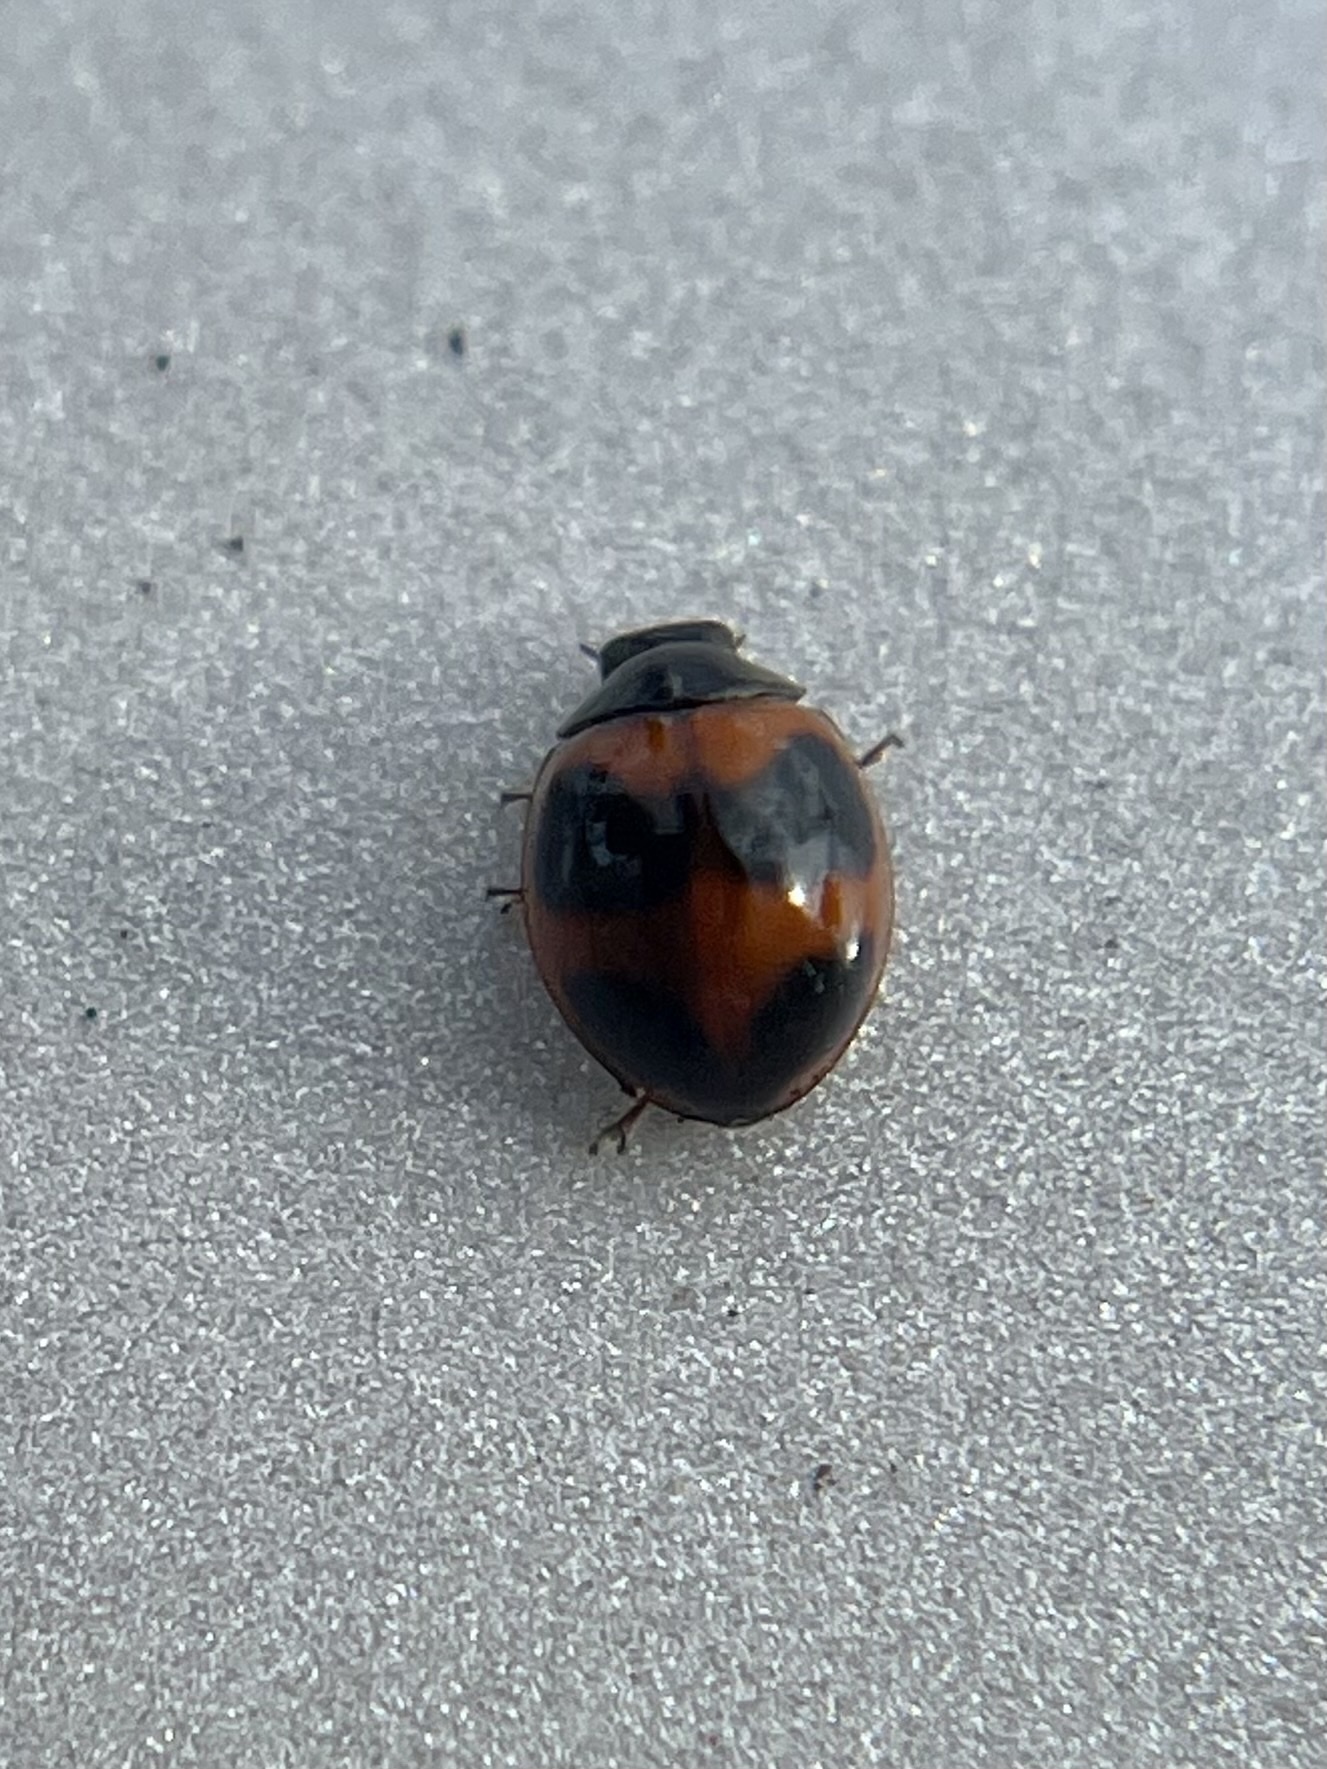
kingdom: Animalia
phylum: Arthropoda
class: Insecta
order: Coleoptera
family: Coccinellidae
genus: Exochomus
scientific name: Exochomus childreni
